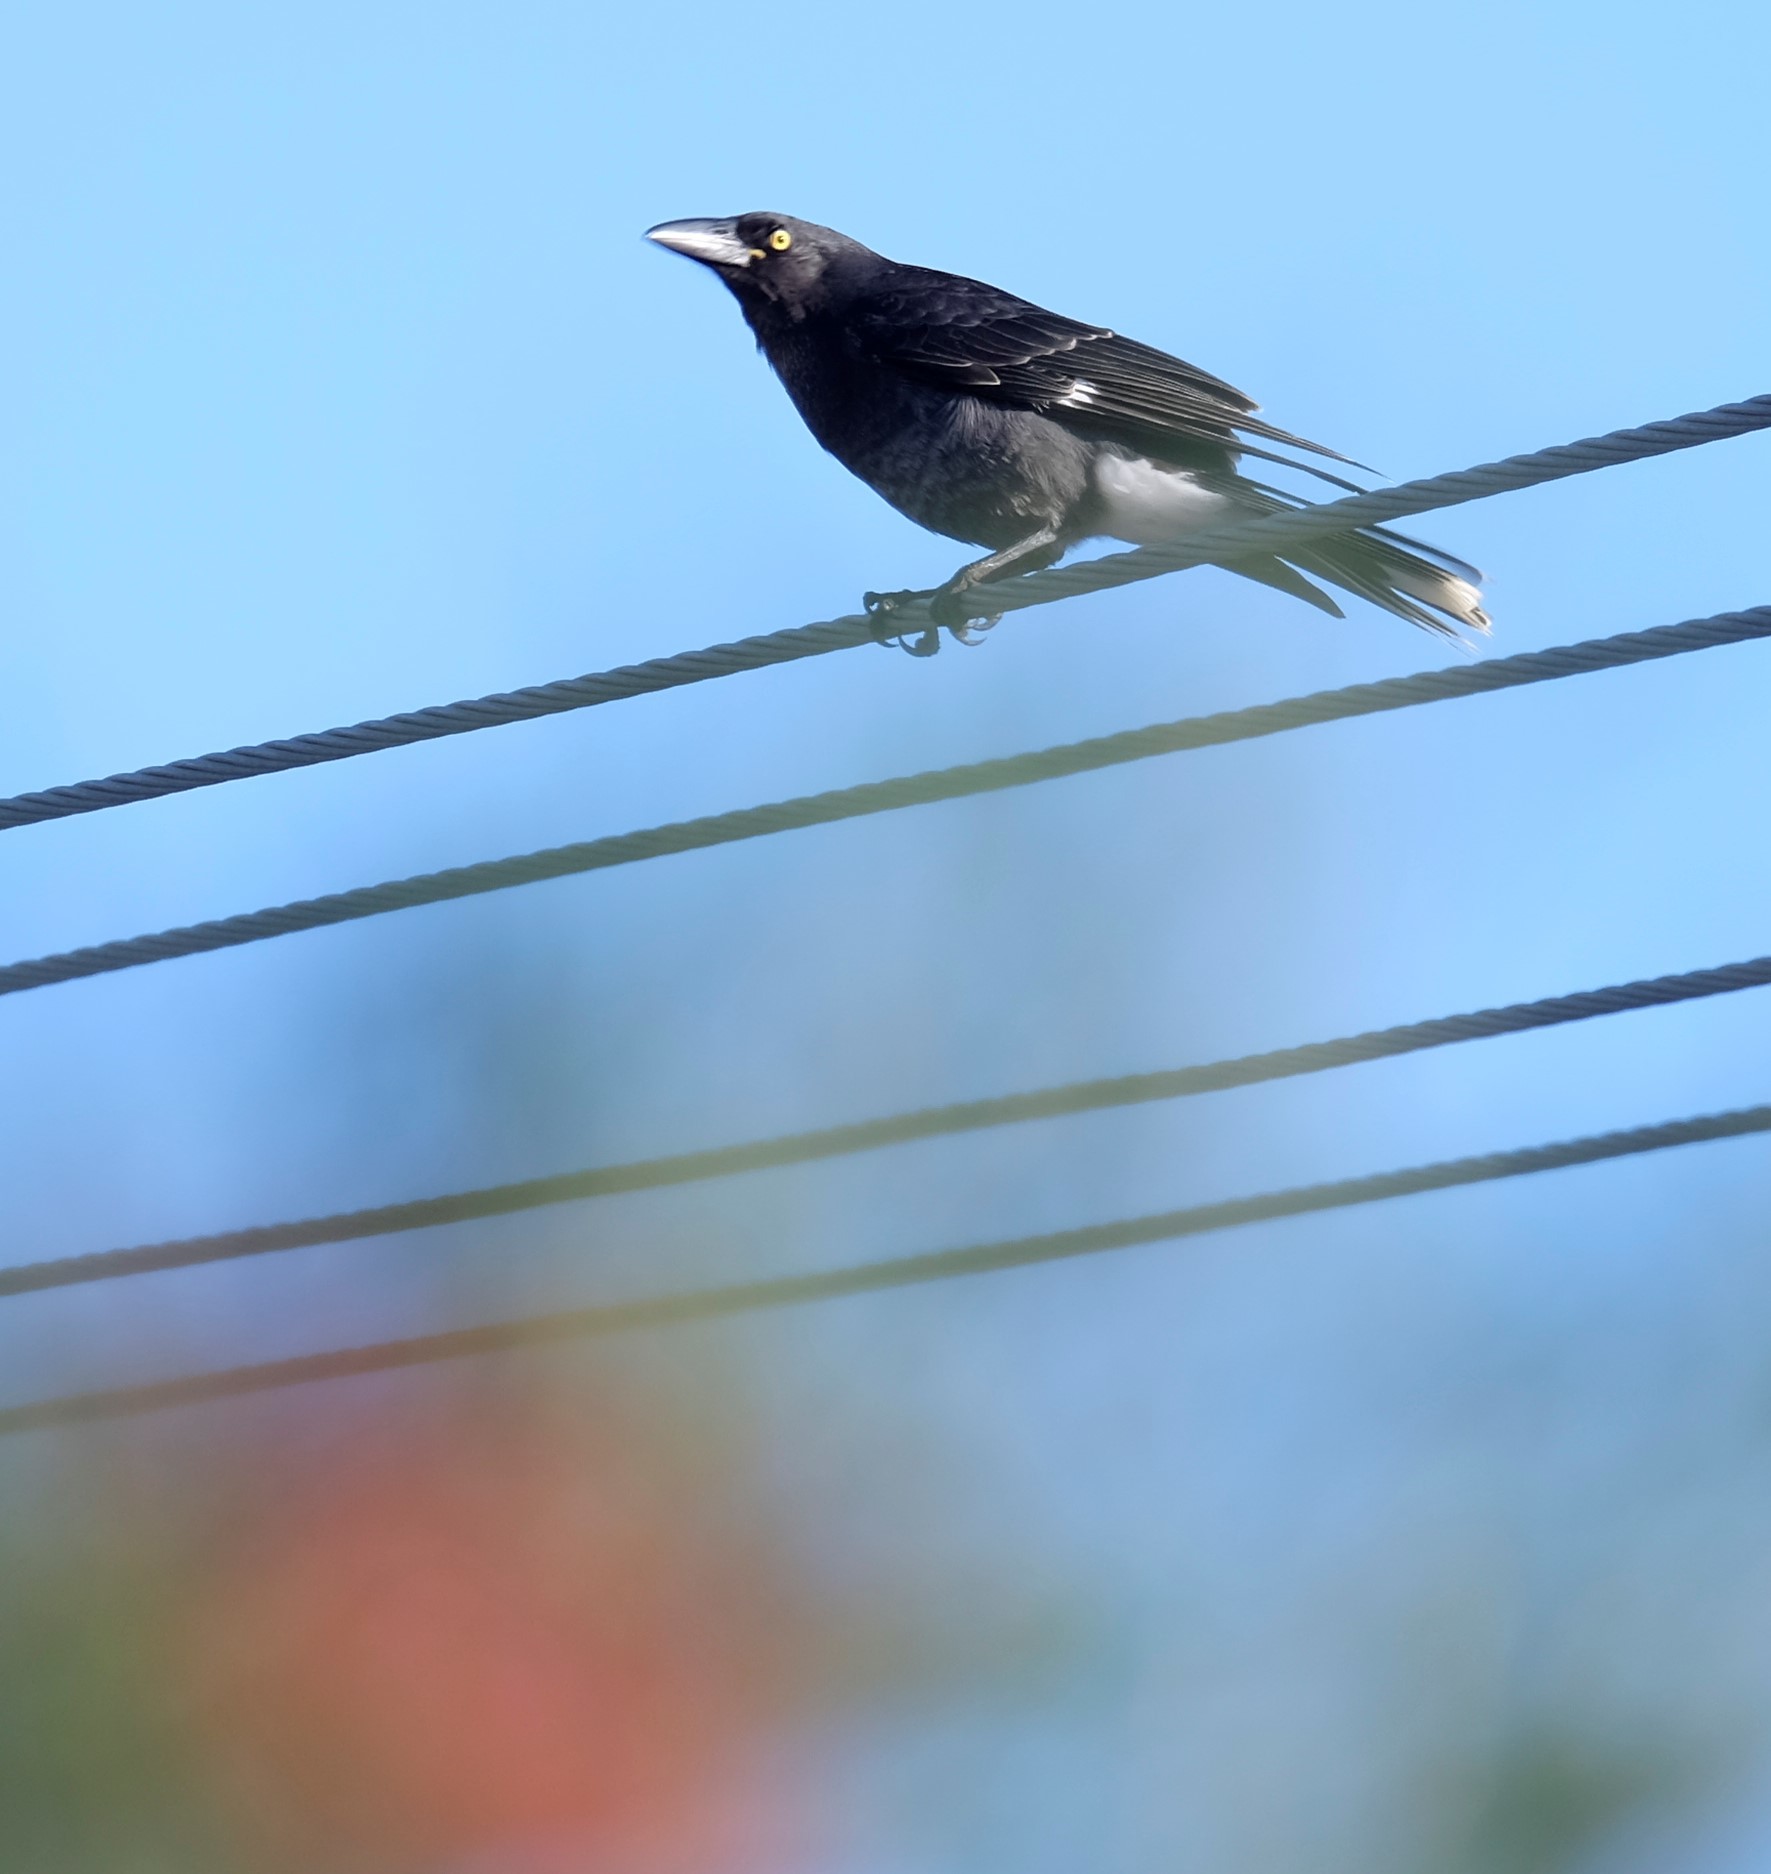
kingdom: Animalia
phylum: Chordata
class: Aves
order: Passeriformes
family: Cracticidae
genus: Strepera
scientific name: Strepera graculina
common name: Pied currawong
